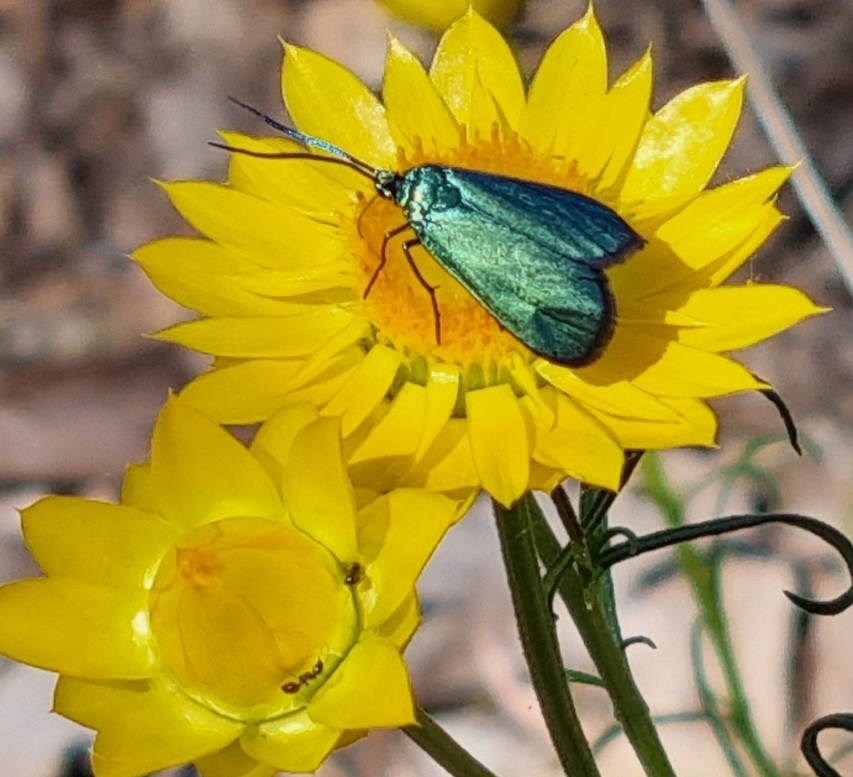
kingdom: Animalia
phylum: Arthropoda
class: Insecta
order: Lepidoptera
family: Zygaenidae
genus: Pollanisus
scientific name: Pollanisus viridipulverulenta
